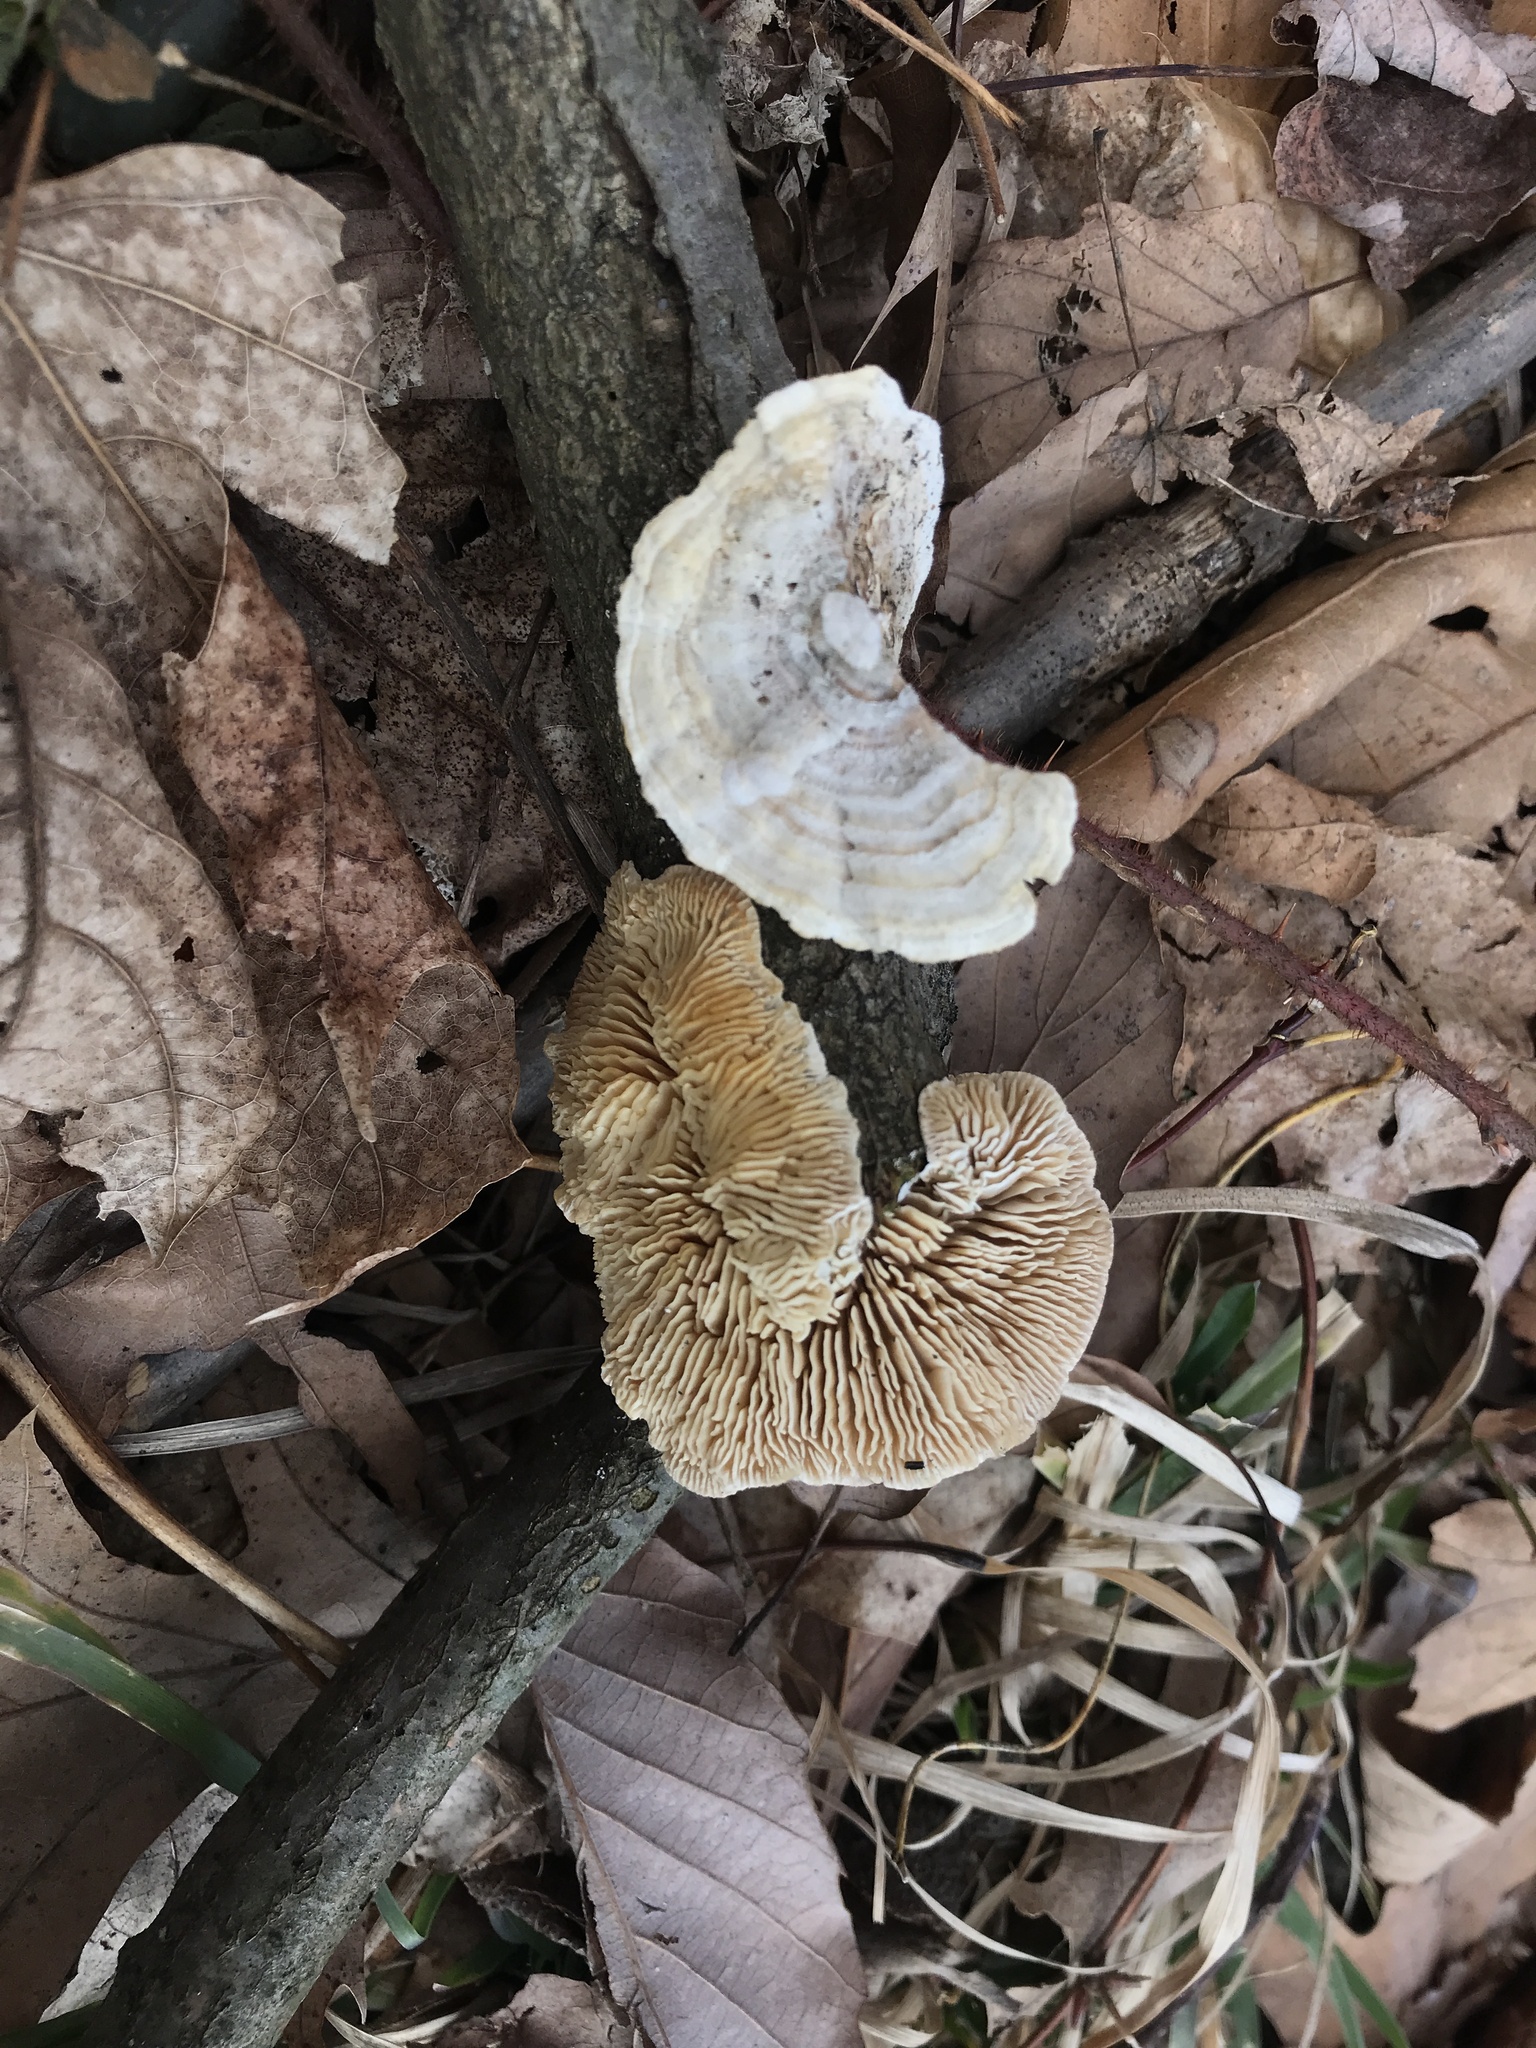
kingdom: Fungi
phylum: Basidiomycota
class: Agaricomycetes
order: Polyporales
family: Polyporaceae
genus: Lenzites
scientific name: Lenzites betulinus
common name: Birch mazegill
